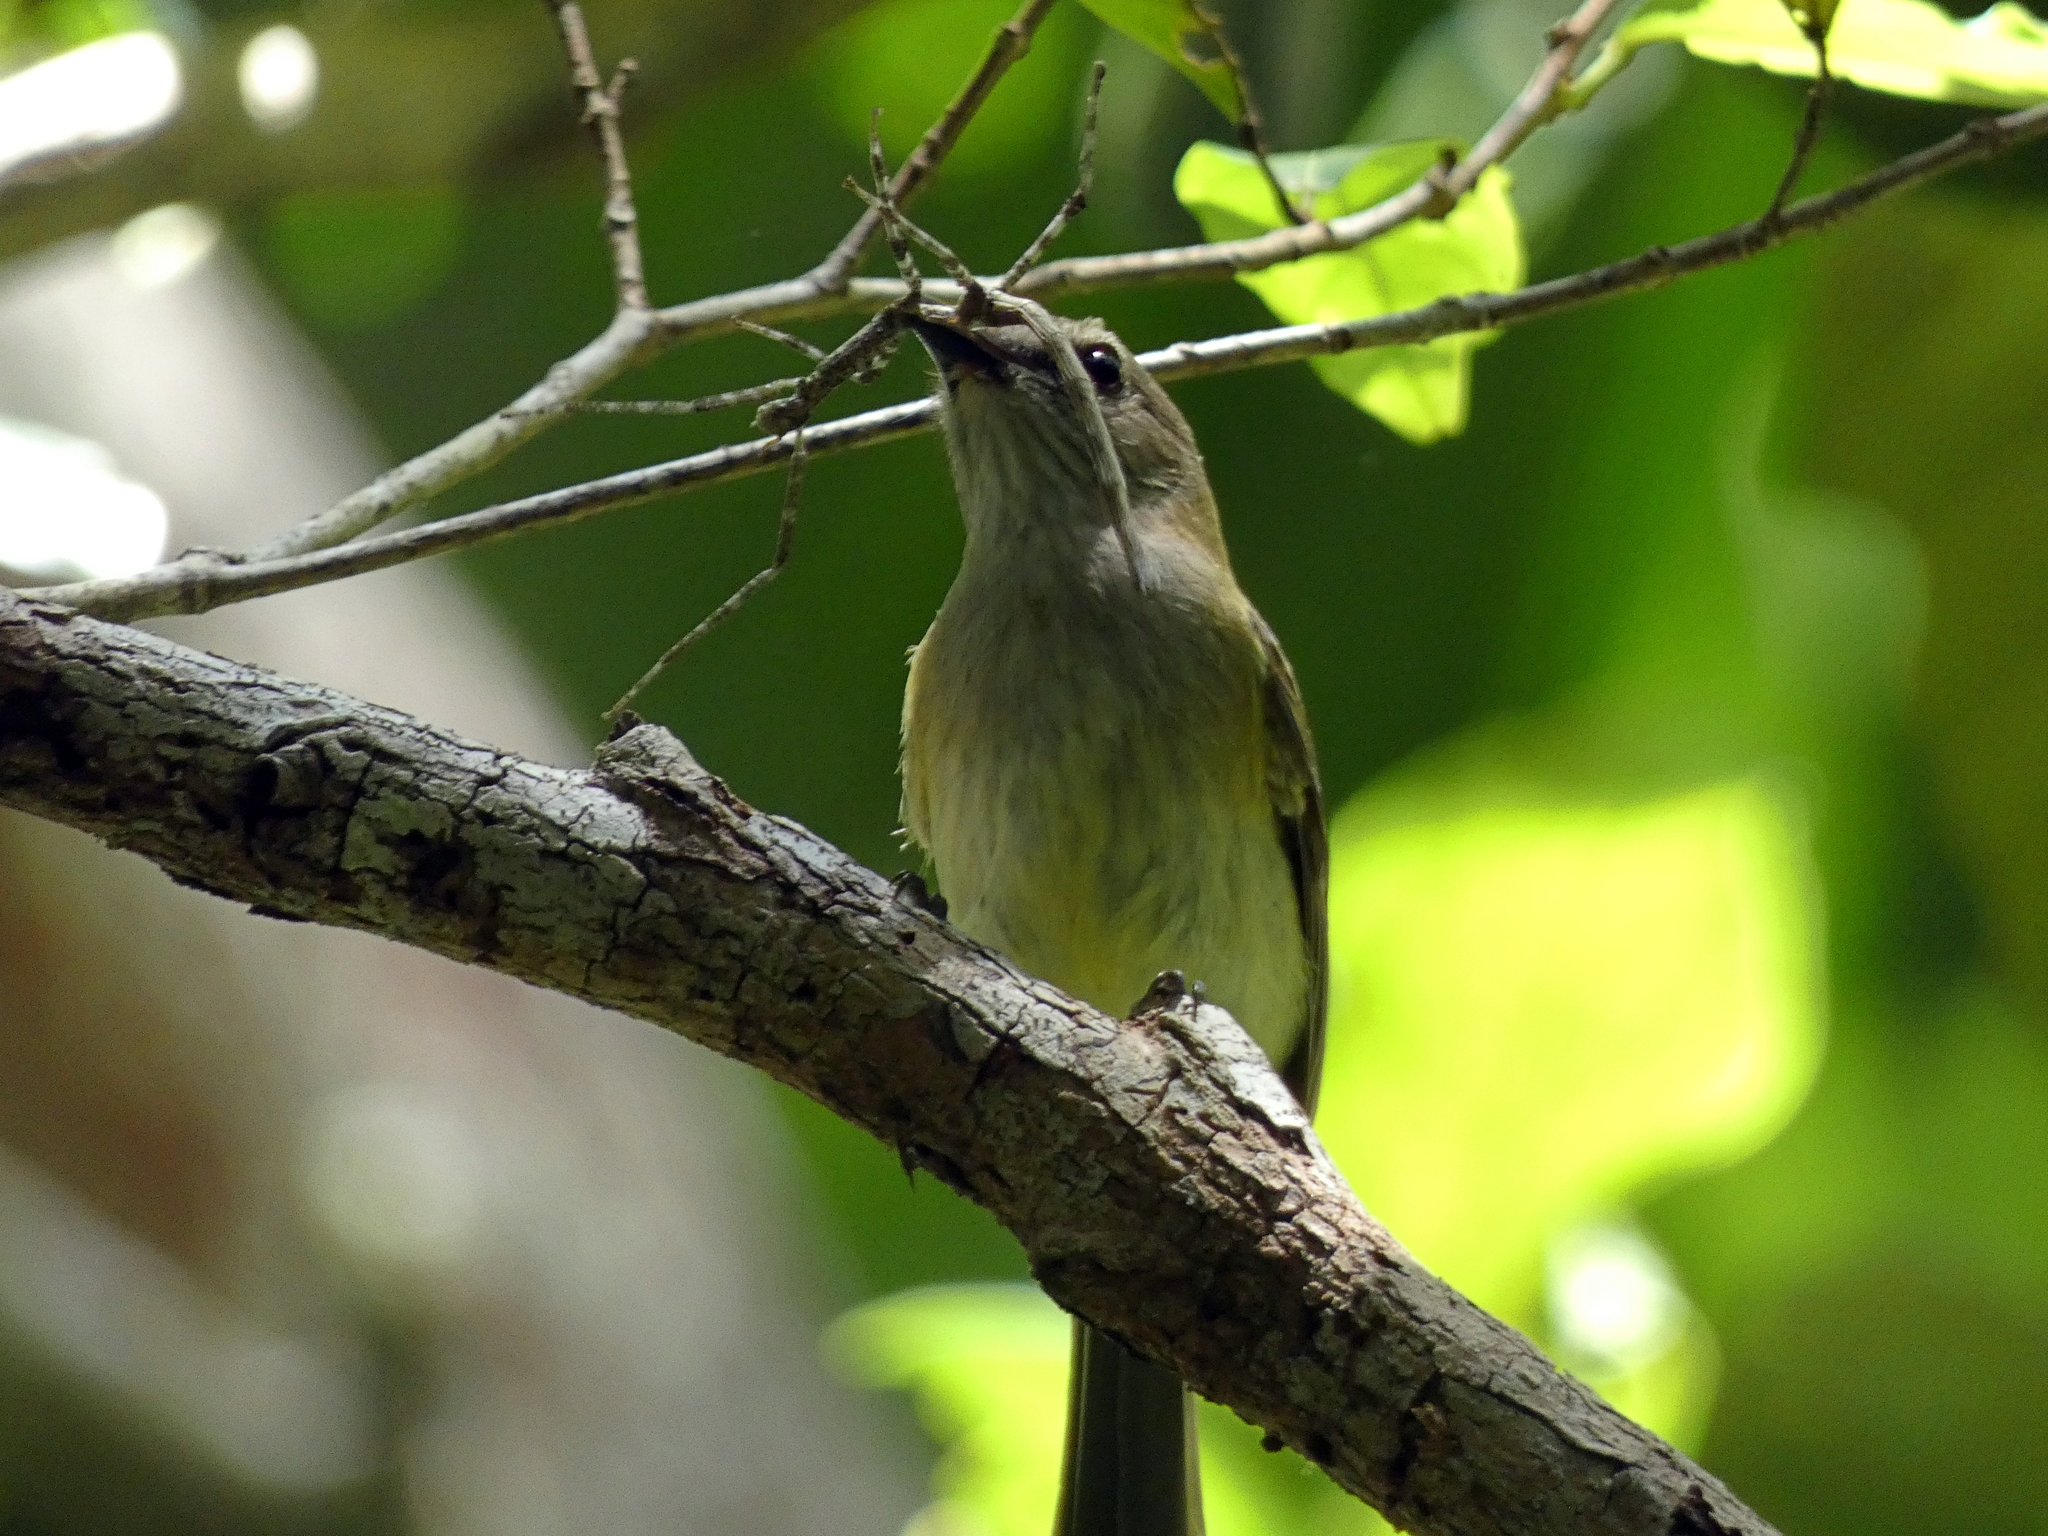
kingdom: Animalia
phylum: Chordata
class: Aves
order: Passeriformes
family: Petroicidae
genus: Microeca
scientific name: Microeca flavigaster
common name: Lemon-bellied flyrobin
